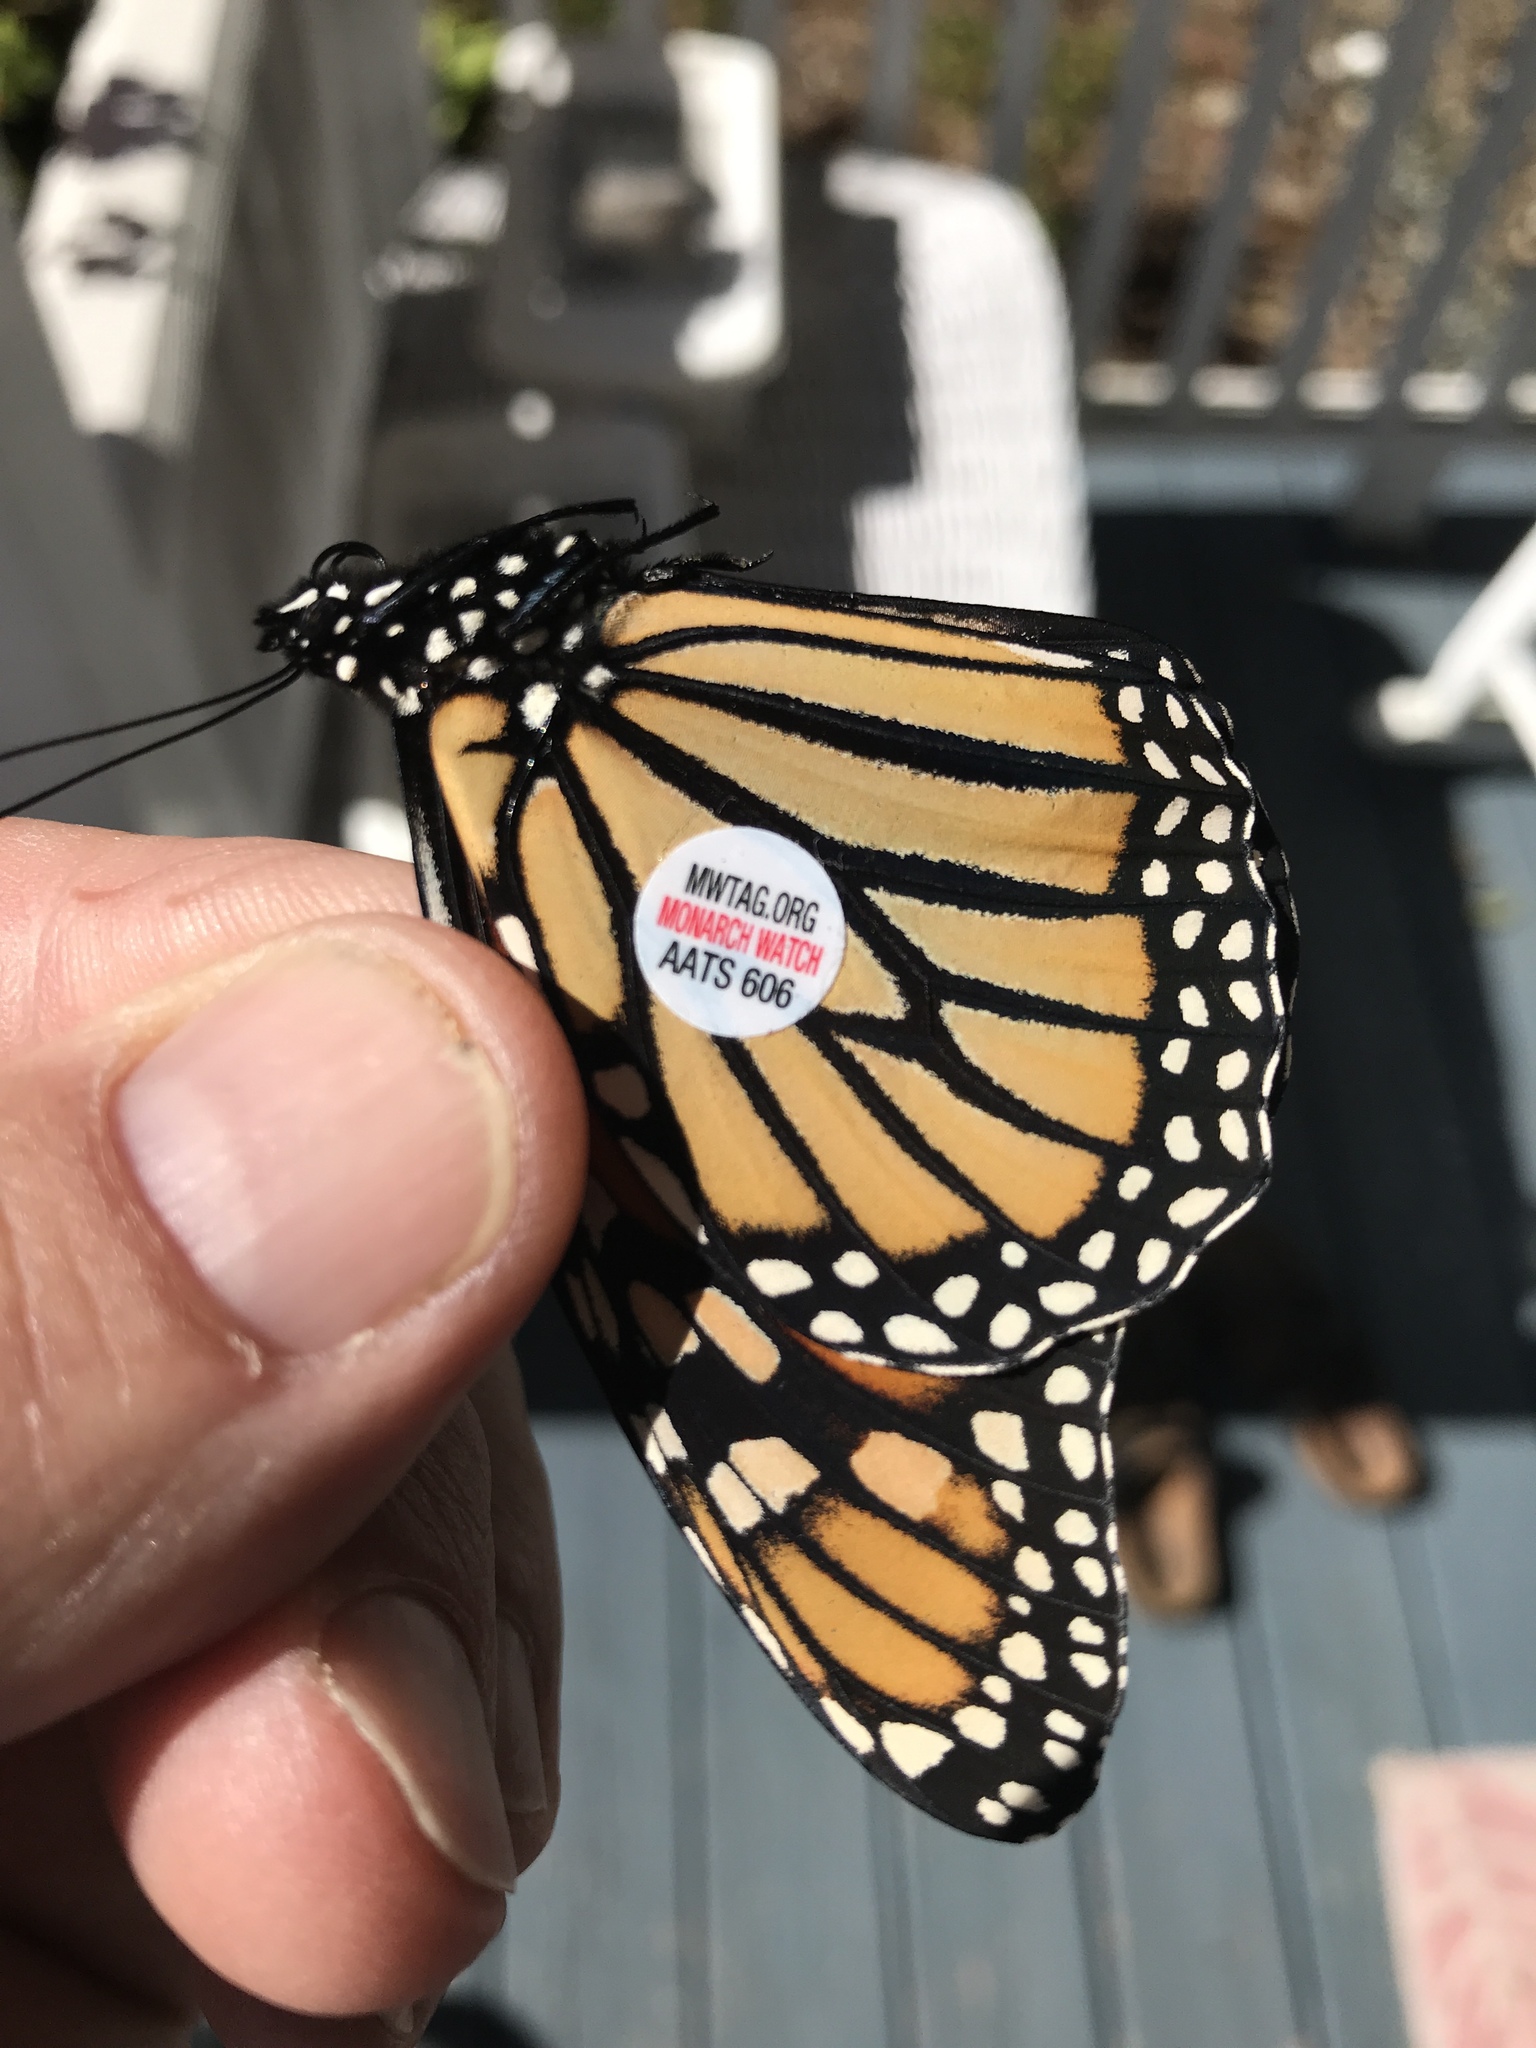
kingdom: Animalia
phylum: Arthropoda
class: Insecta
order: Lepidoptera
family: Nymphalidae
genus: Danaus
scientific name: Danaus plexippus
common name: Monarch
